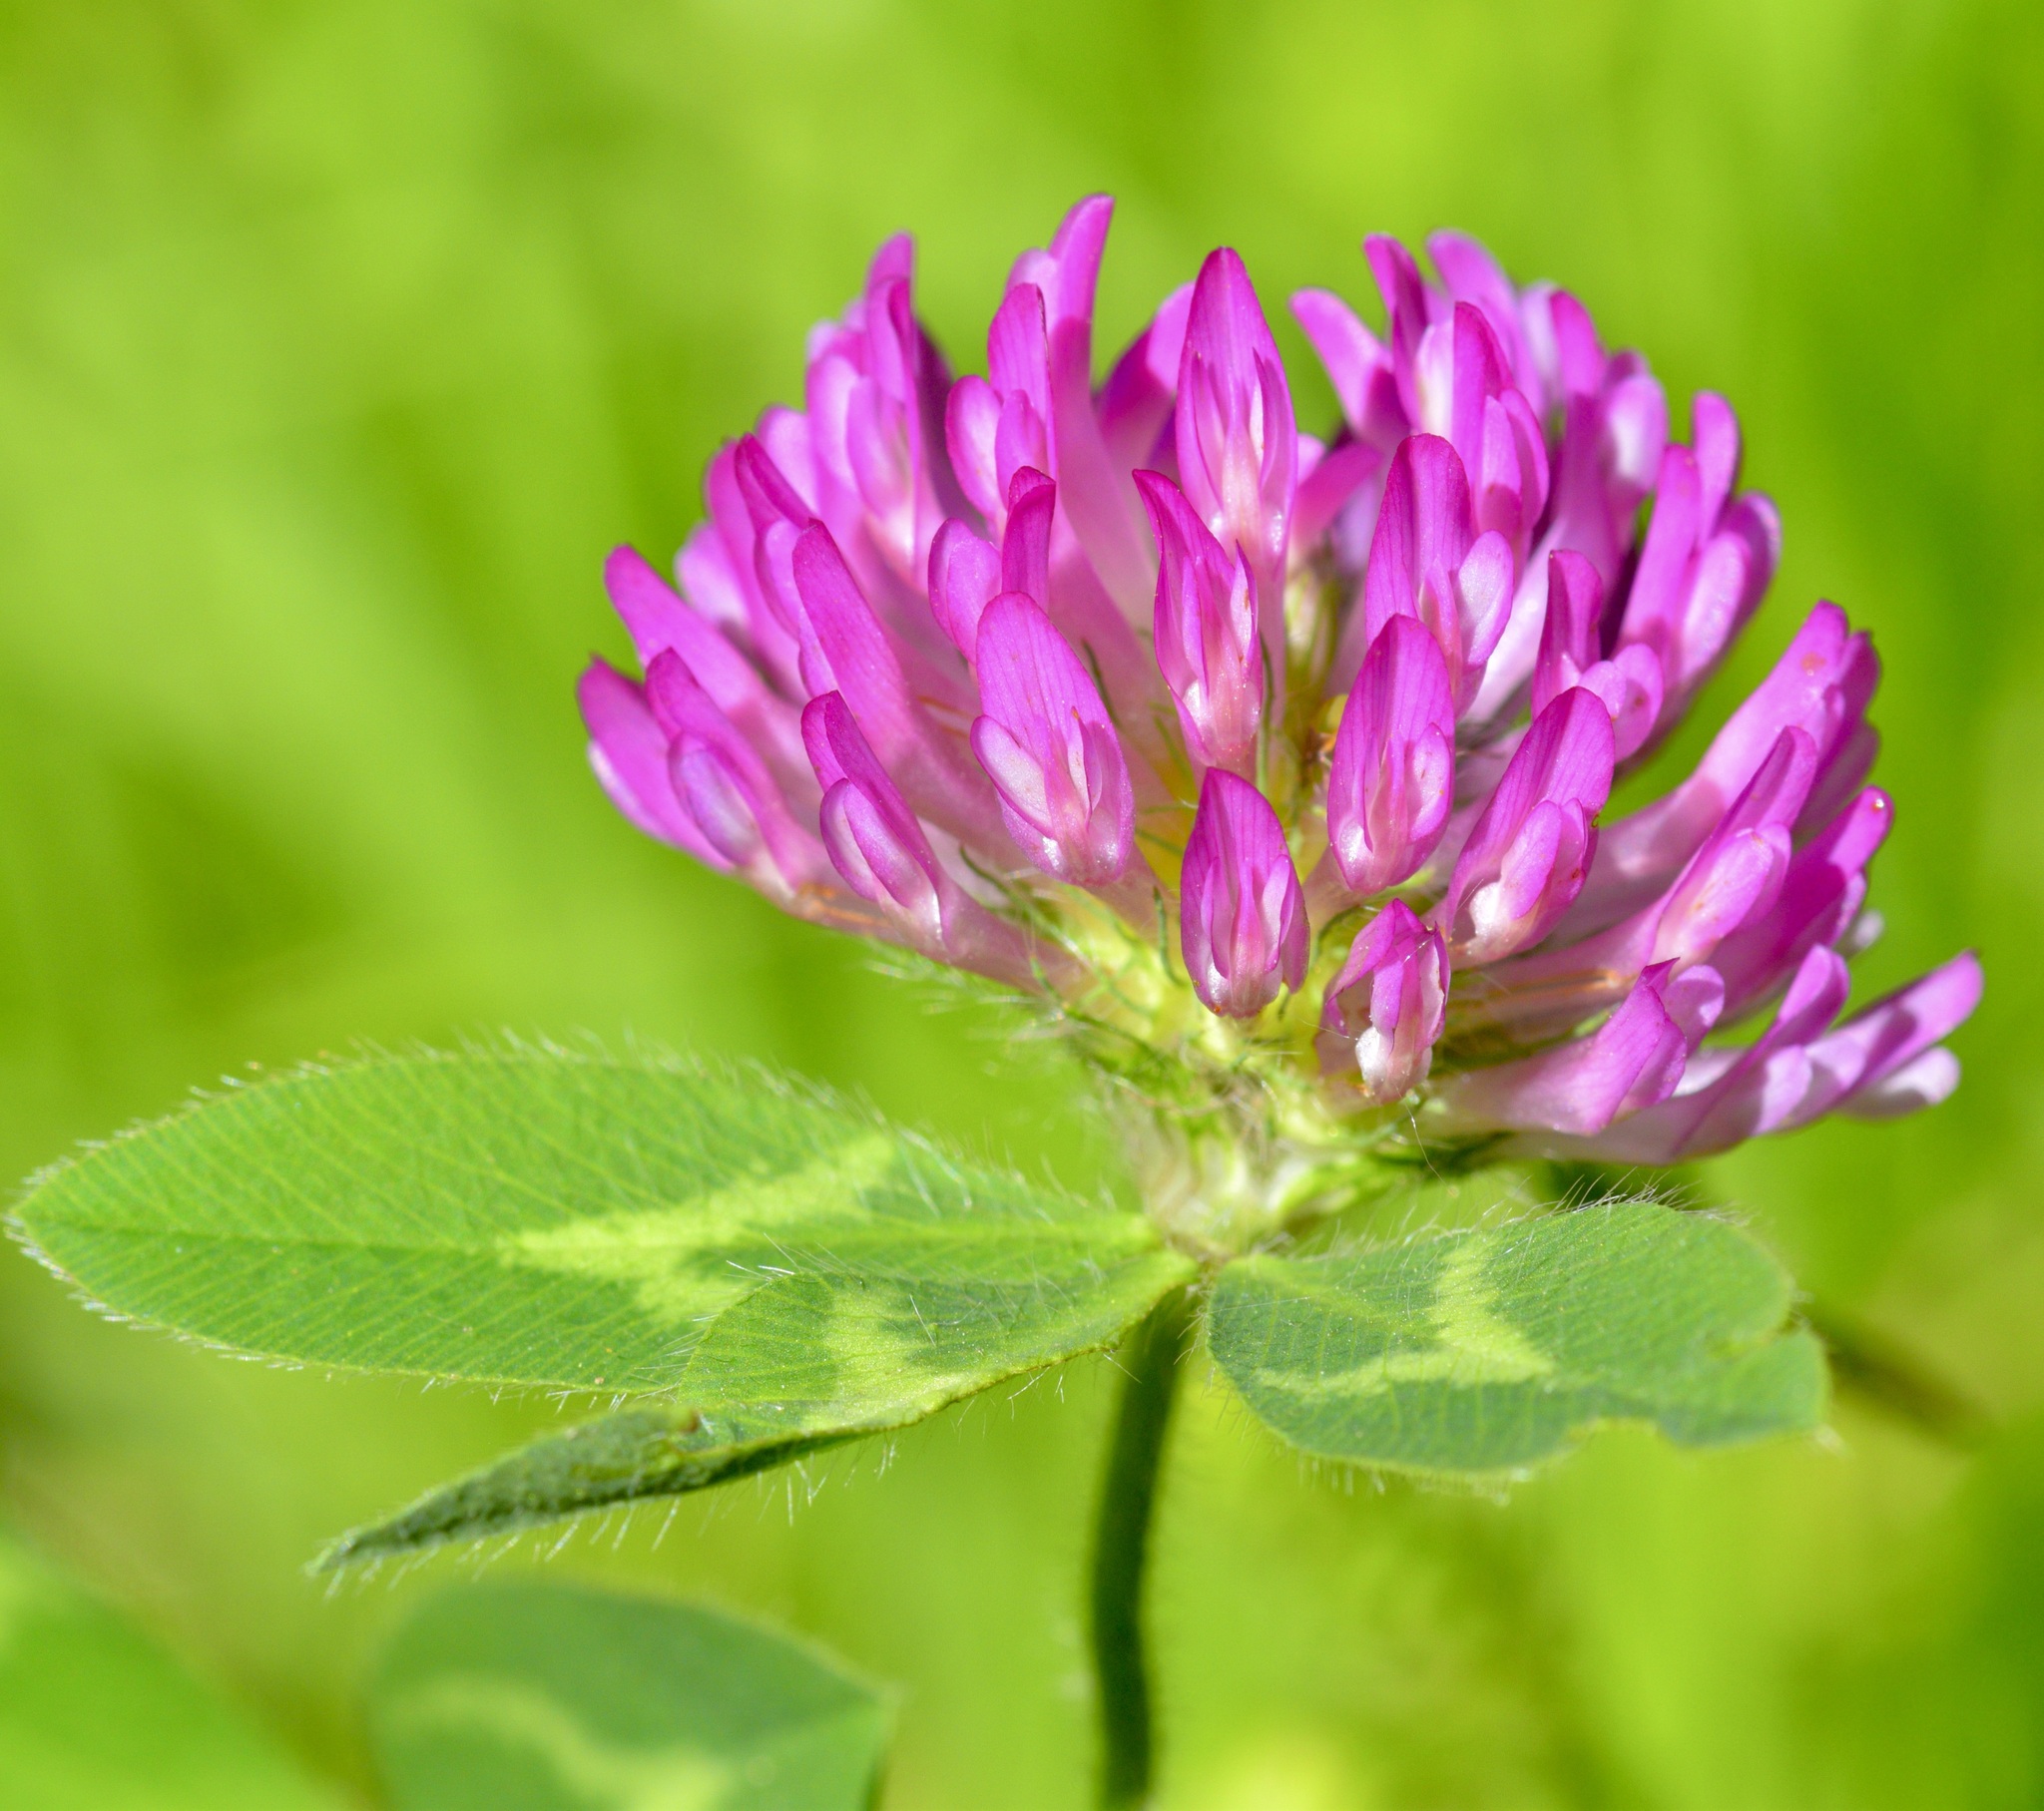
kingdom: Plantae
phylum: Tracheophyta
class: Magnoliopsida
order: Fabales
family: Fabaceae
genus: Trifolium
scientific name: Trifolium pratense
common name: Red clover
